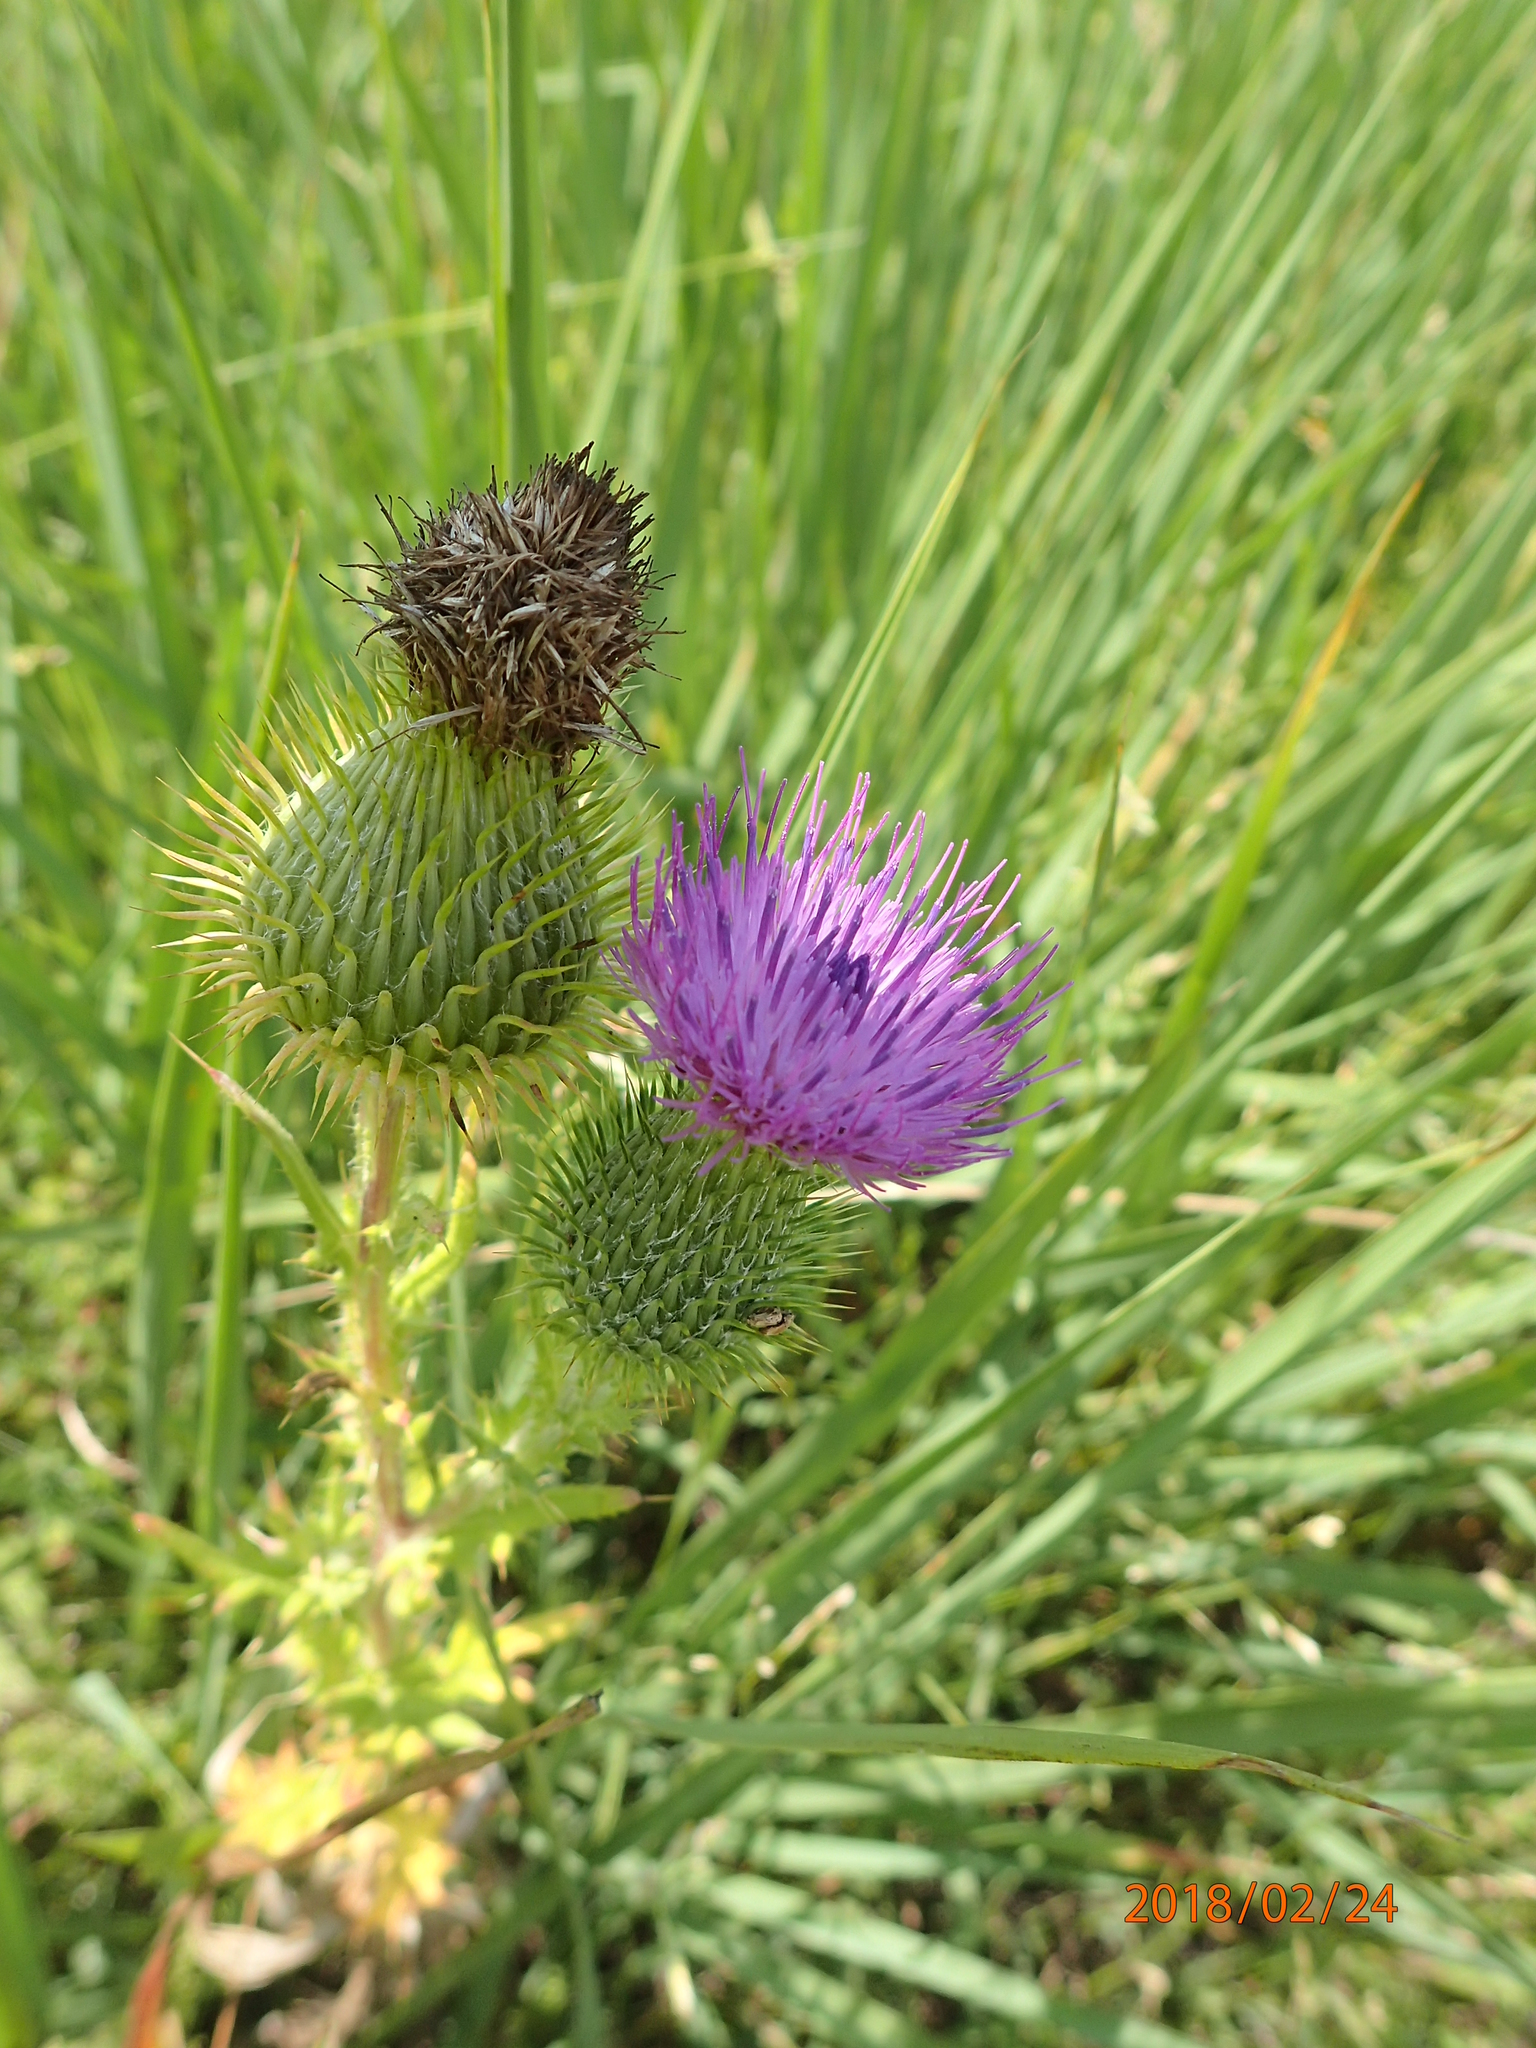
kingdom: Plantae
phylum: Tracheophyta
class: Magnoliopsida
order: Asterales
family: Asteraceae
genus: Cirsium
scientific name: Cirsium vulgare
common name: Bull thistle
